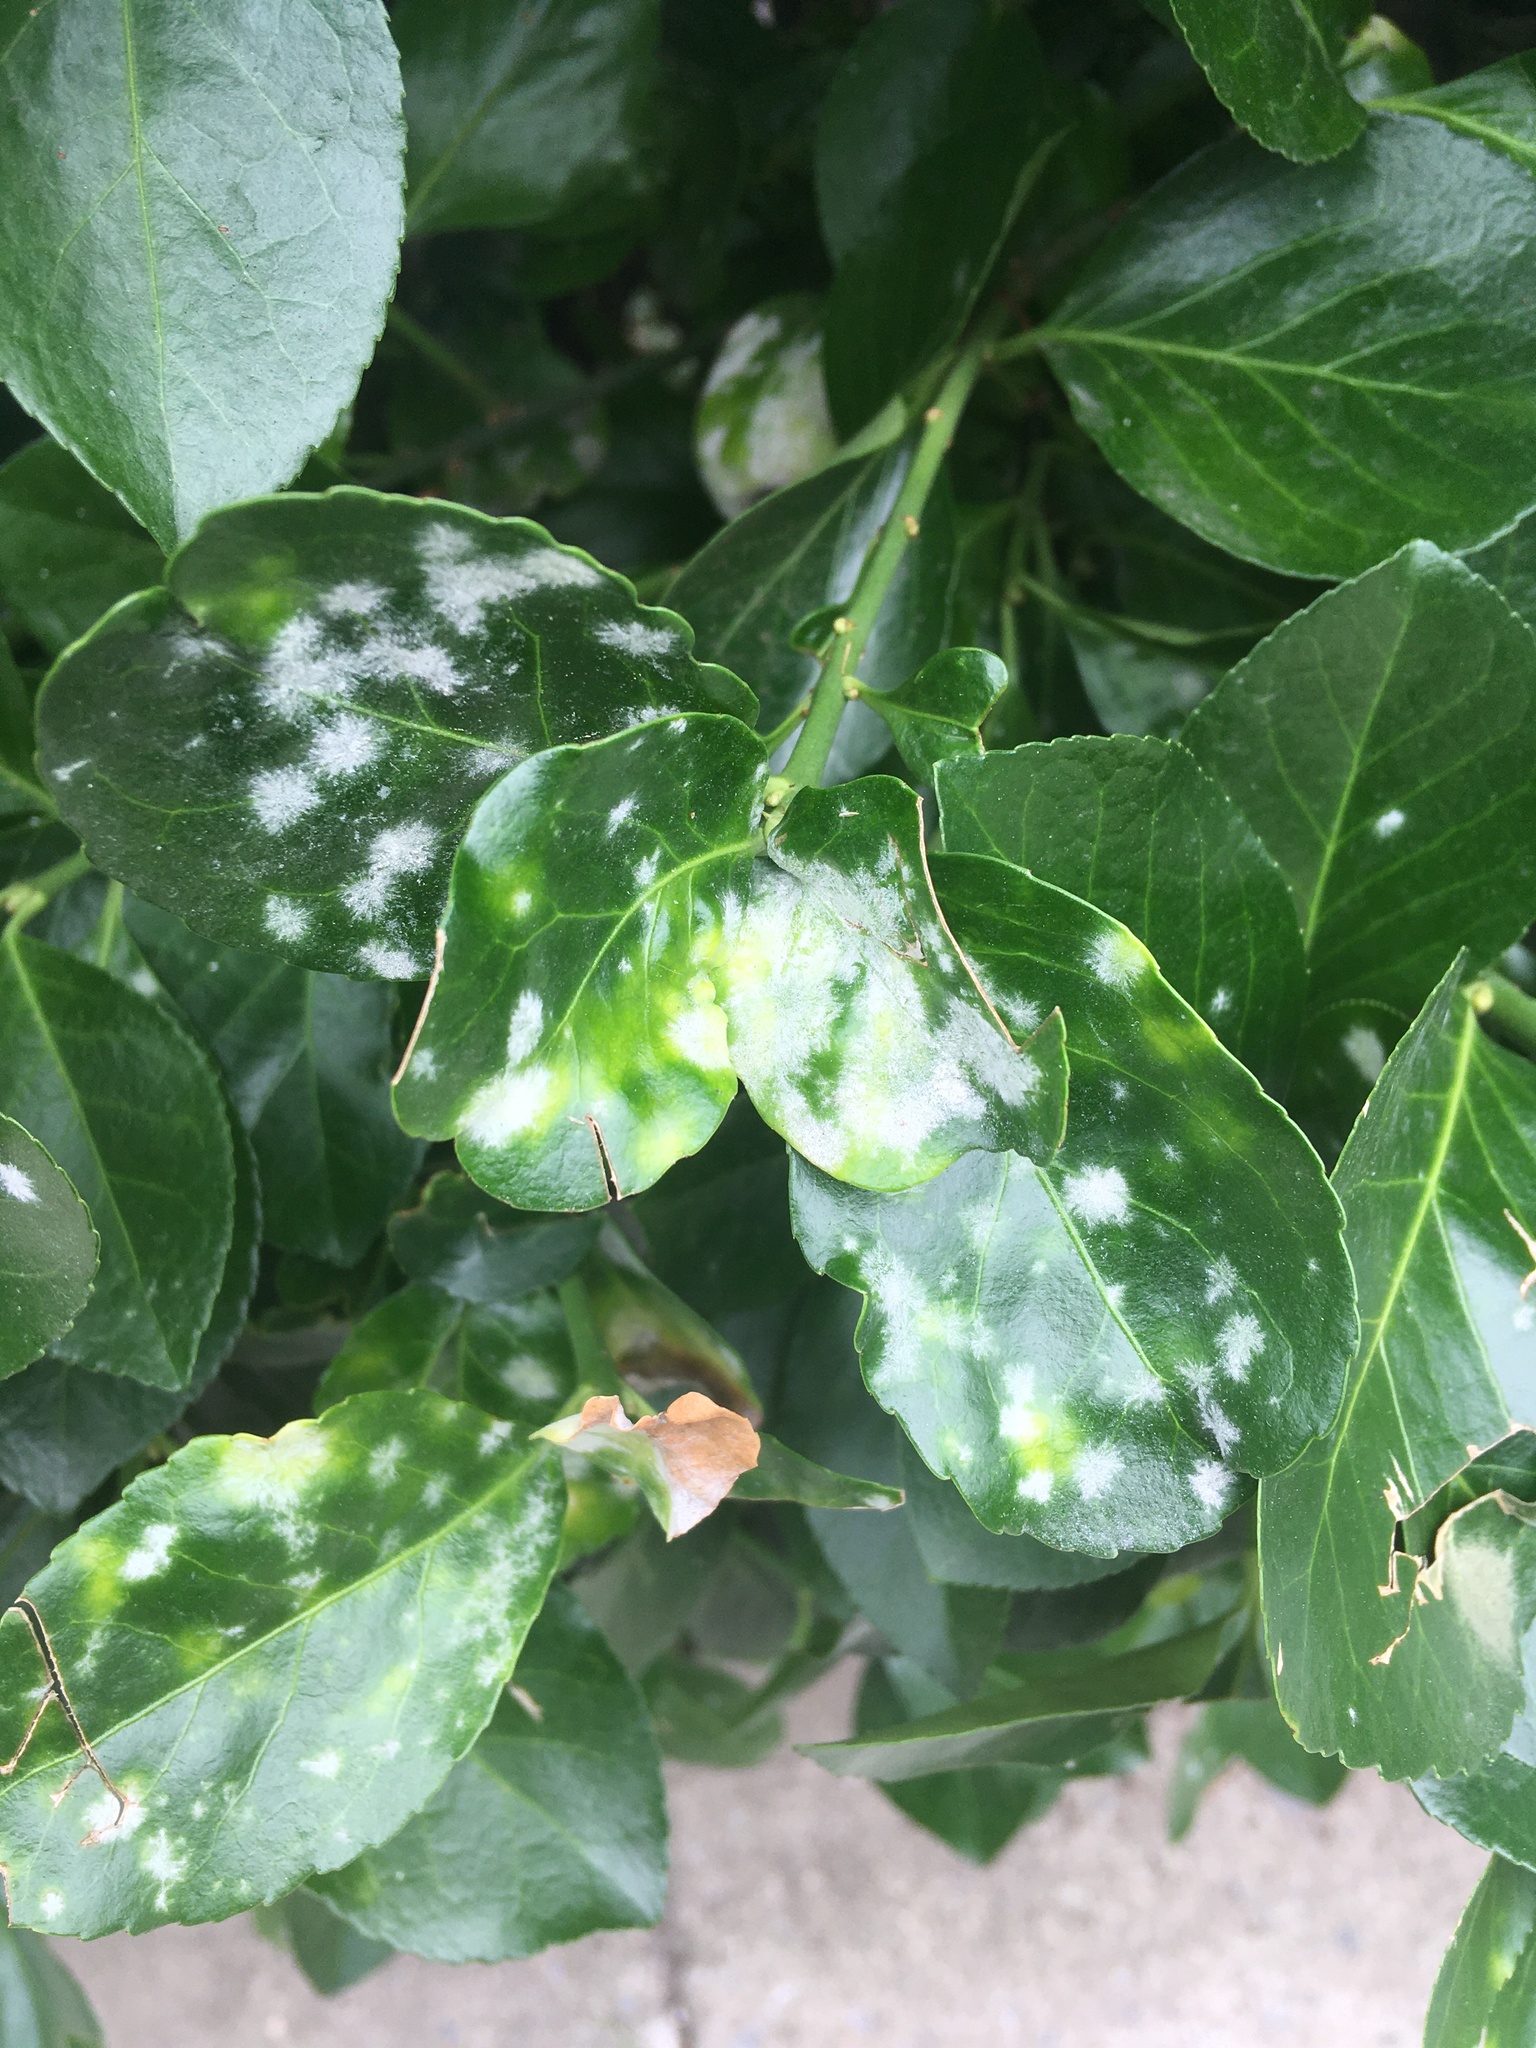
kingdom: Fungi
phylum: Ascomycota
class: Leotiomycetes
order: Helotiales
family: Erysiphaceae
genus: Erysiphe
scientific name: Erysiphe euonymicola
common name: Spindletree mildew
